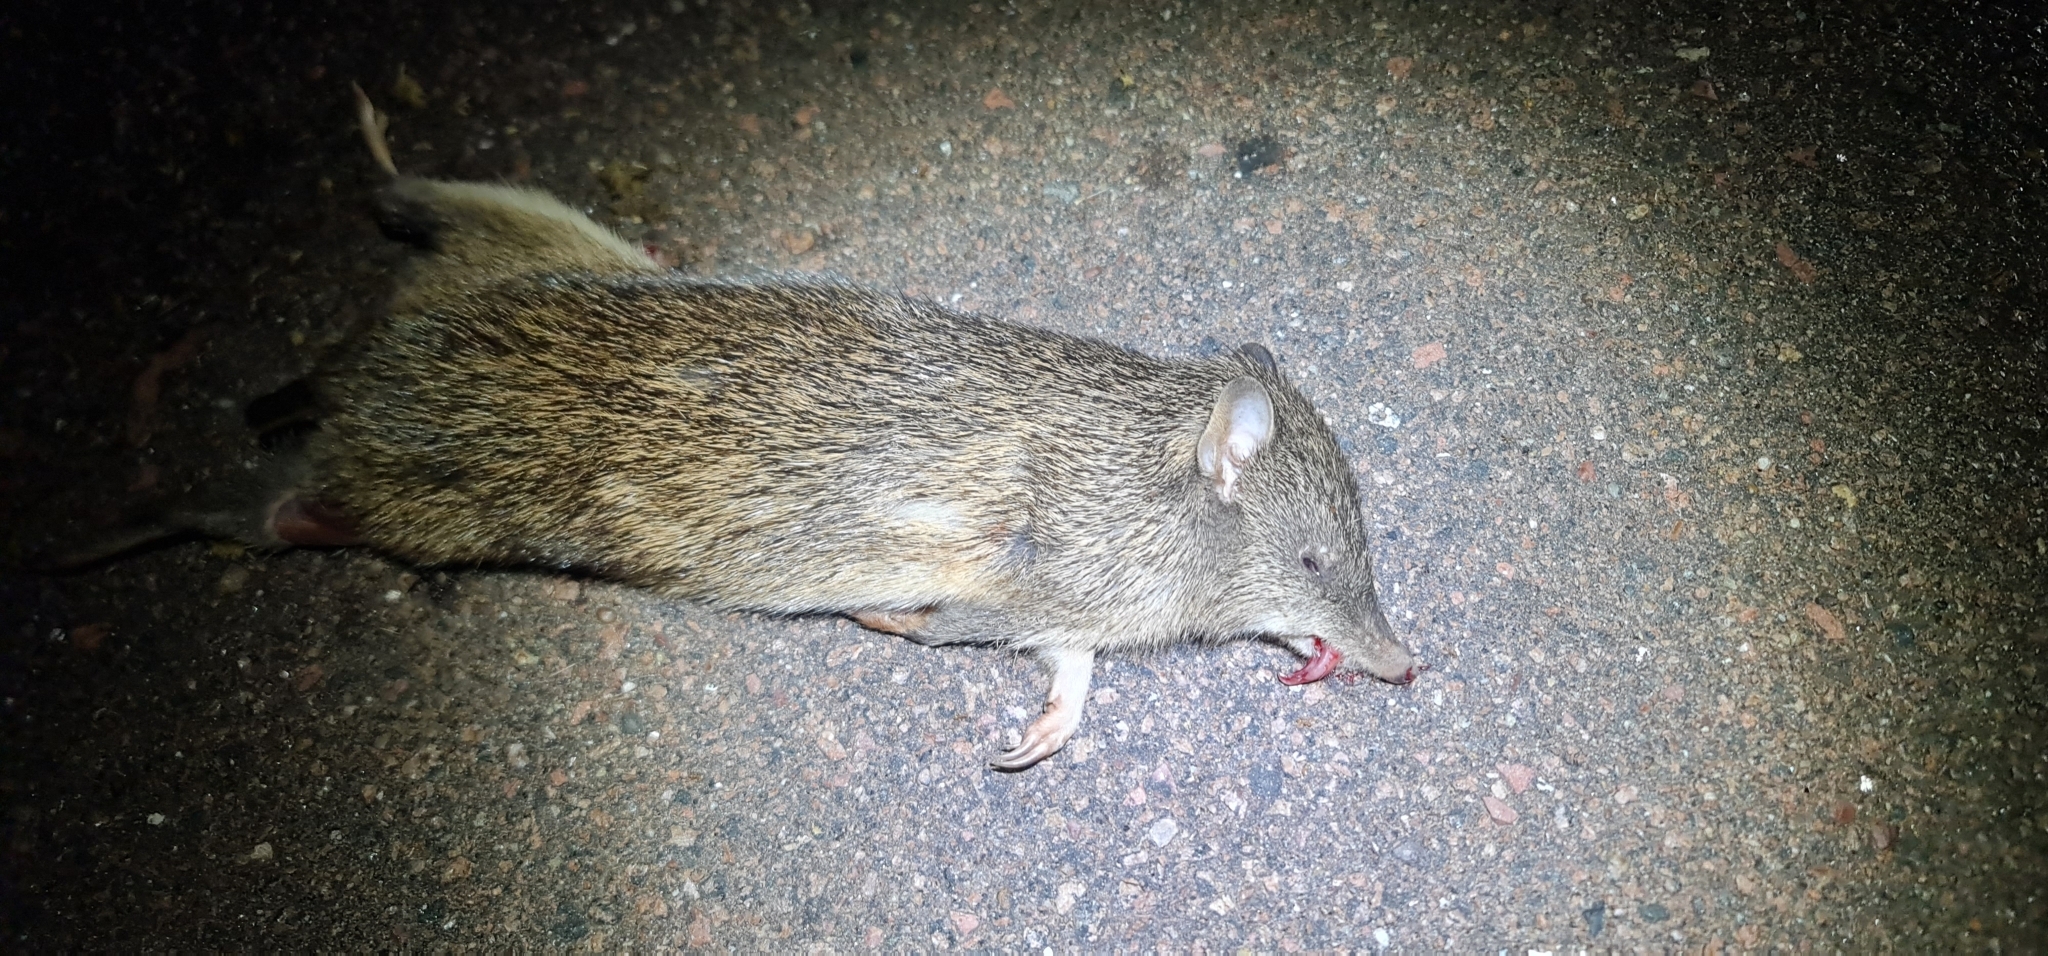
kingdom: Animalia
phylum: Chordata
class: Mammalia
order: Peramelemorphia
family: Peramelidae
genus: Isoodon
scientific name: Isoodon macrourus
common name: Northern brown bandicoot
